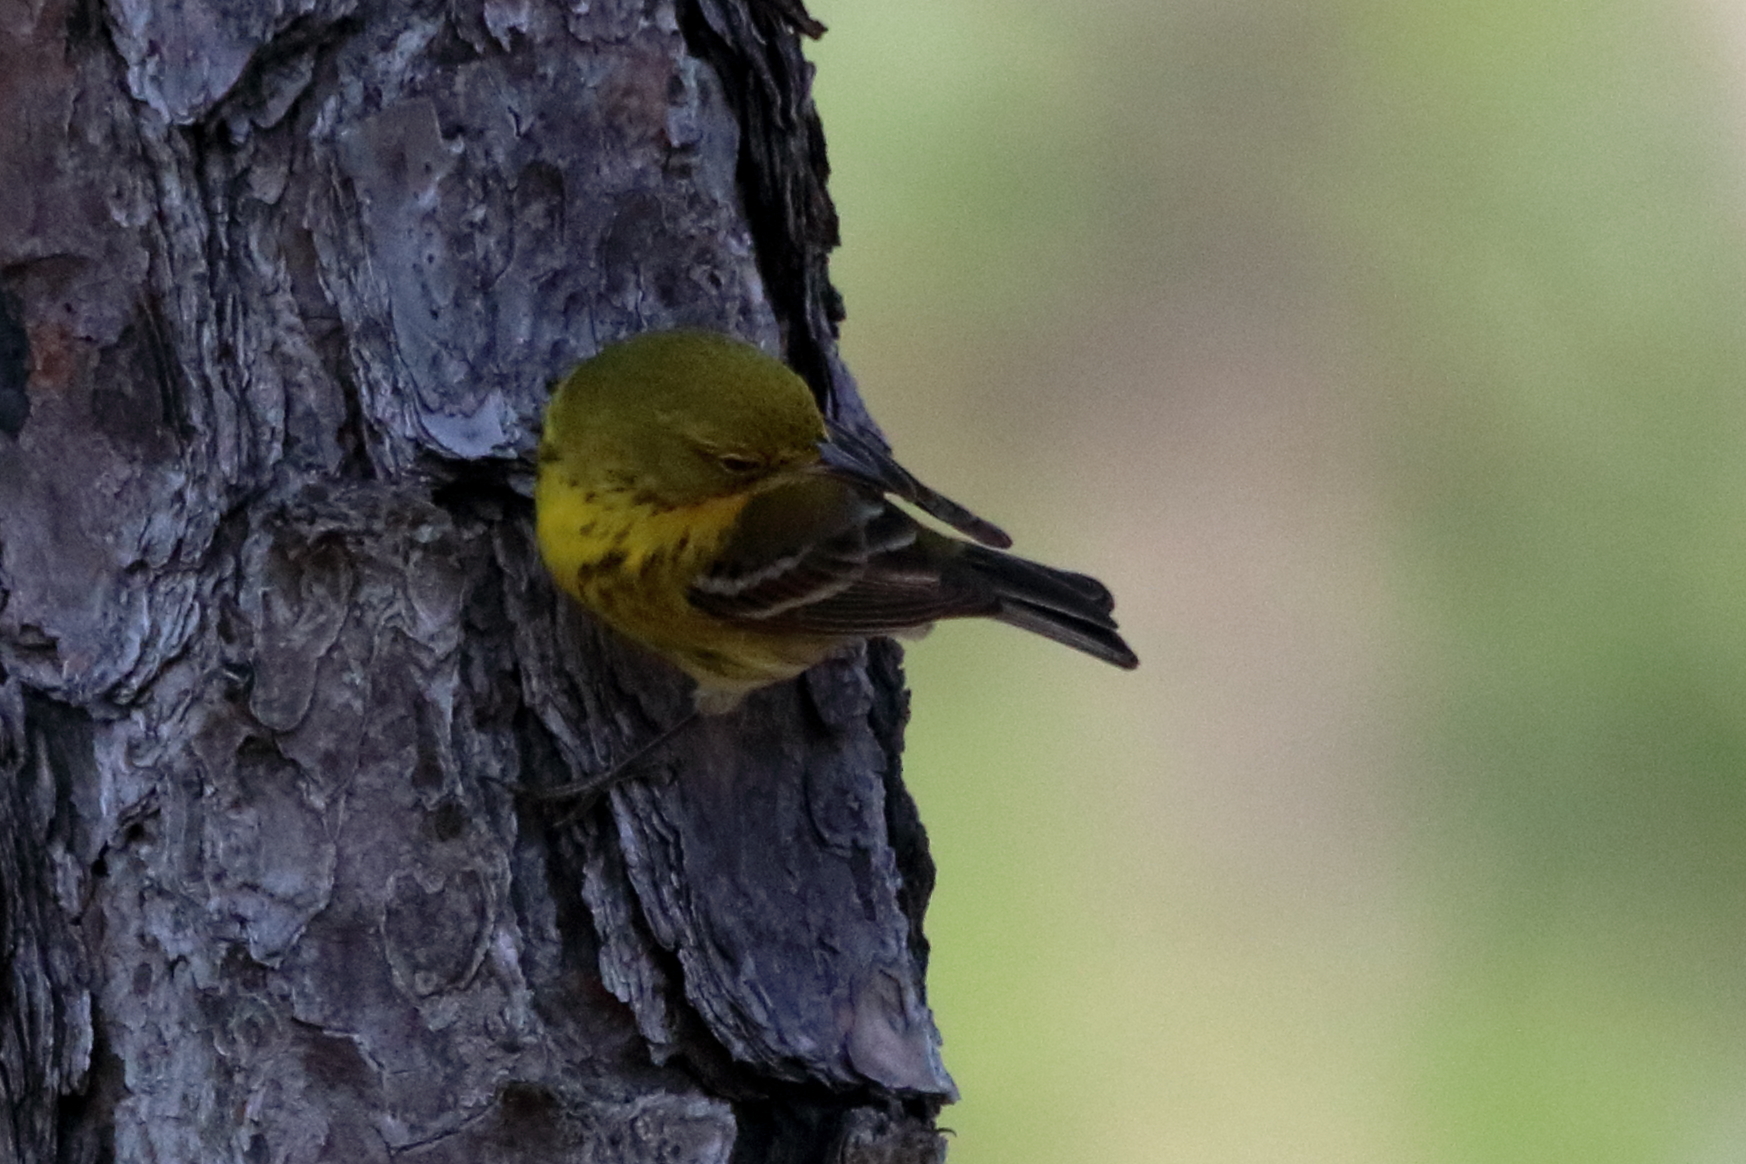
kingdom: Animalia
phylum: Chordata
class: Aves
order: Passeriformes
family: Parulidae
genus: Setophaga
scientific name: Setophaga pinus
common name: Pine warbler
